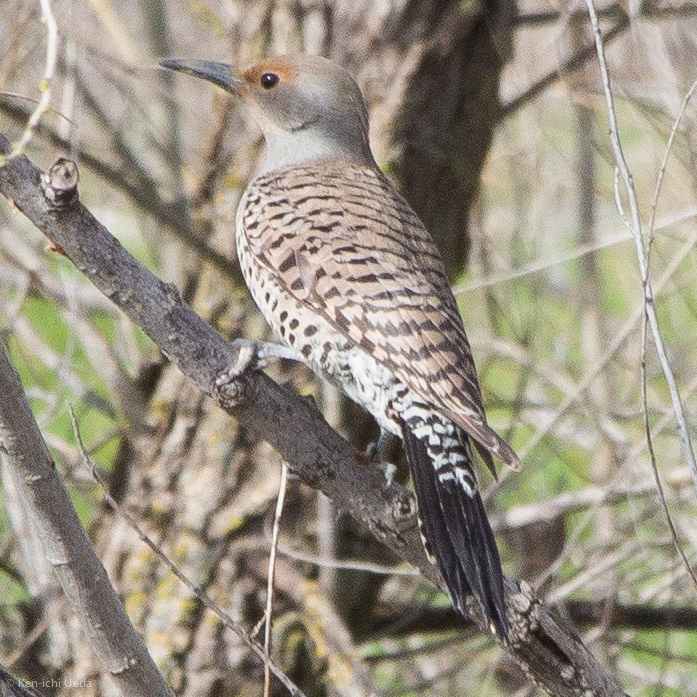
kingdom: Animalia
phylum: Chordata
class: Aves
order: Piciformes
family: Picidae
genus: Colaptes
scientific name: Colaptes auratus
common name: Northern flicker
